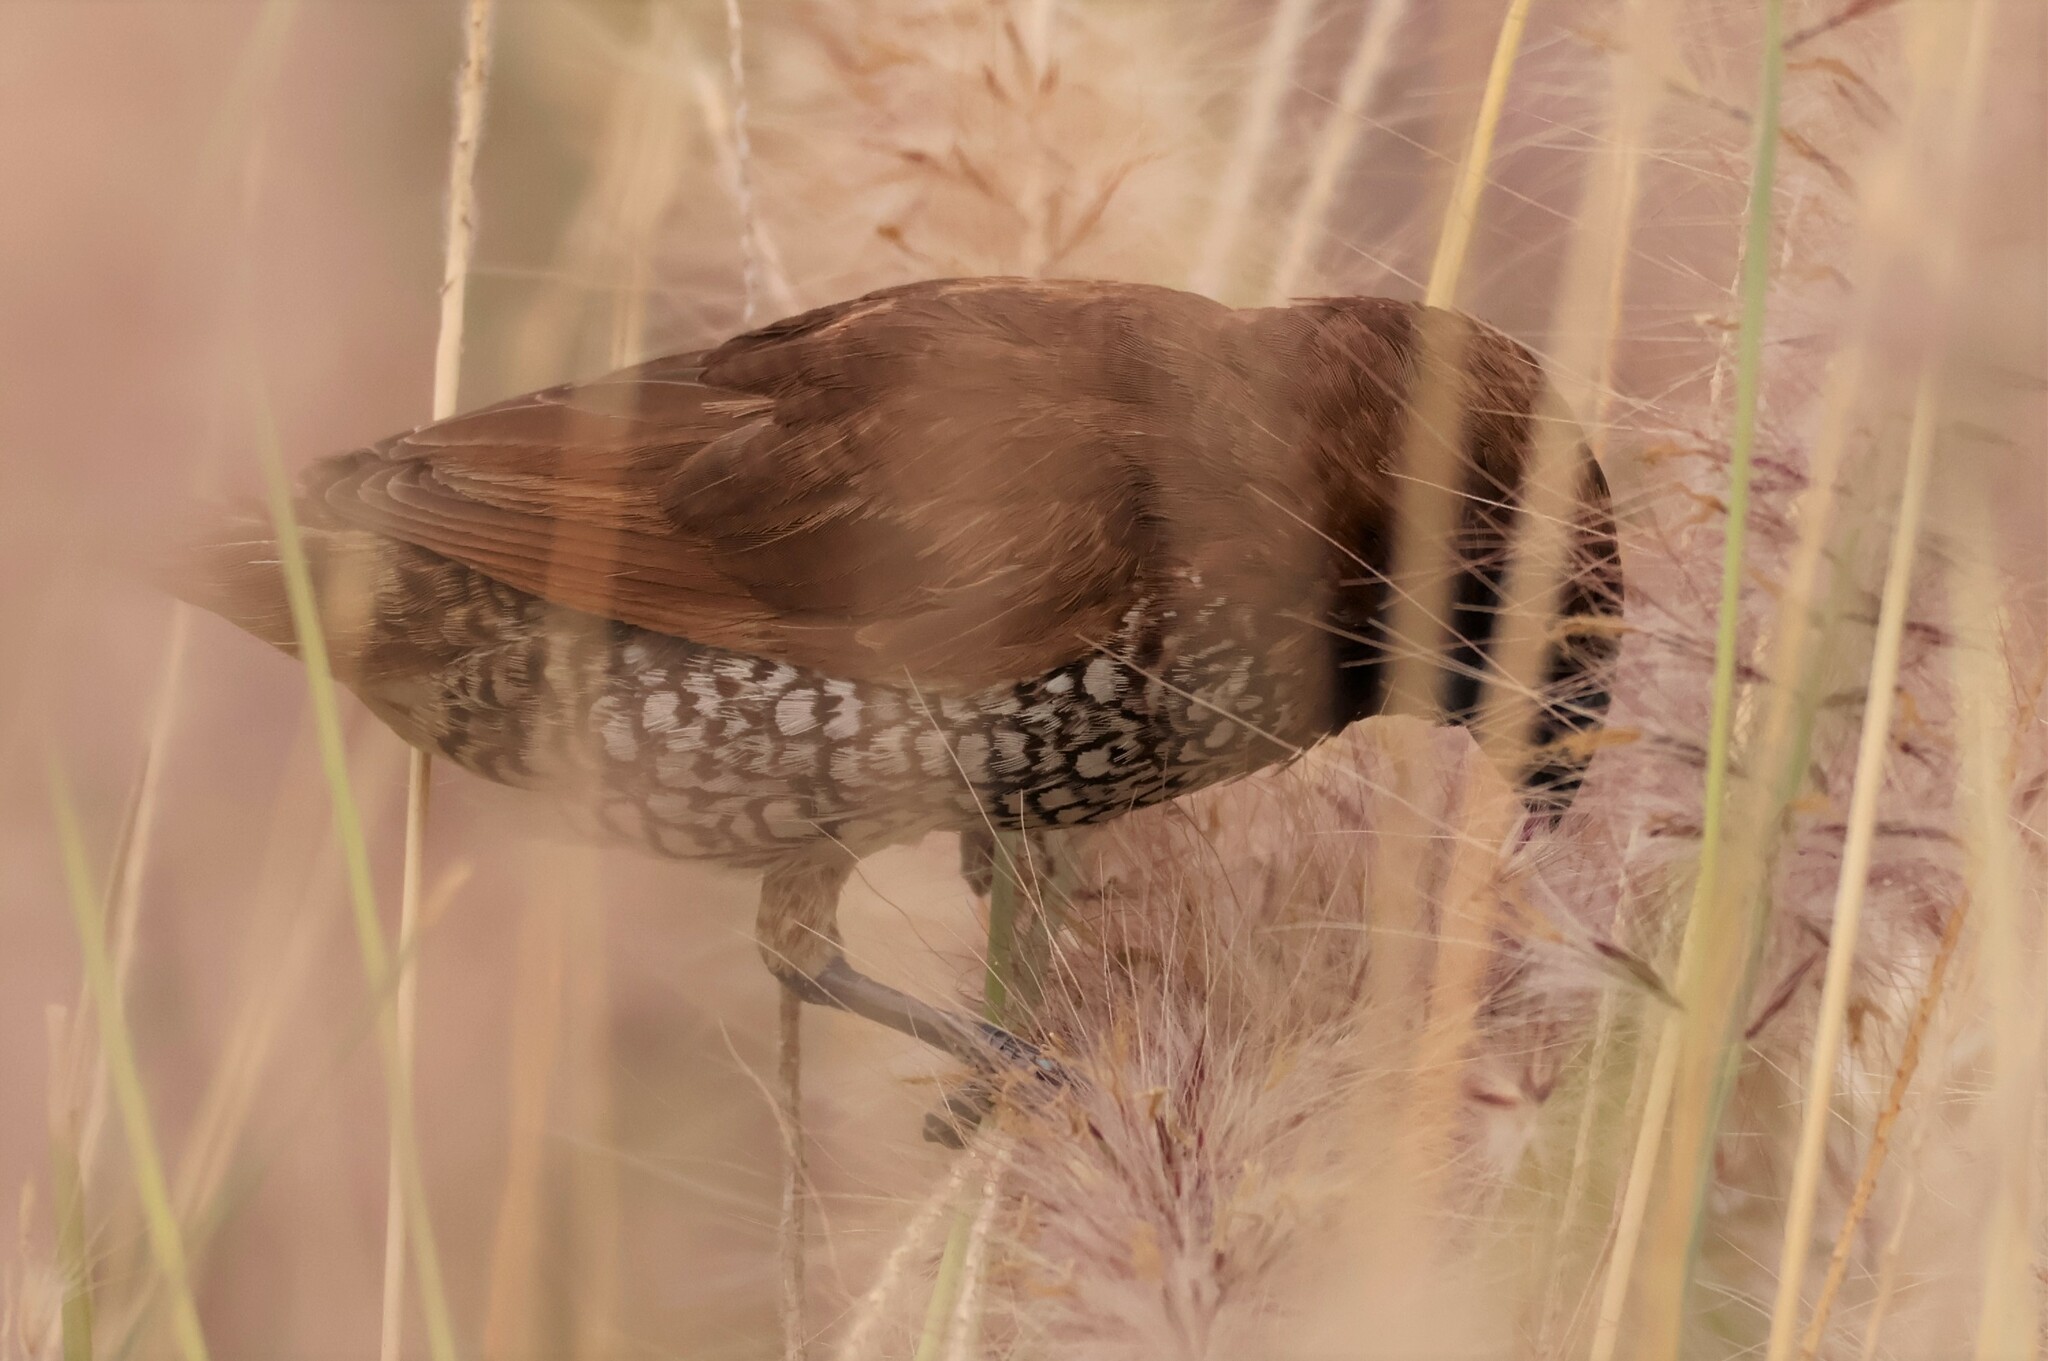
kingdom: Animalia
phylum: Chordata
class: Aves
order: Passeriformes
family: Estrildidae
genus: Lonchura
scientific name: Lonchura punctulata
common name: Scaly-breasted munia
